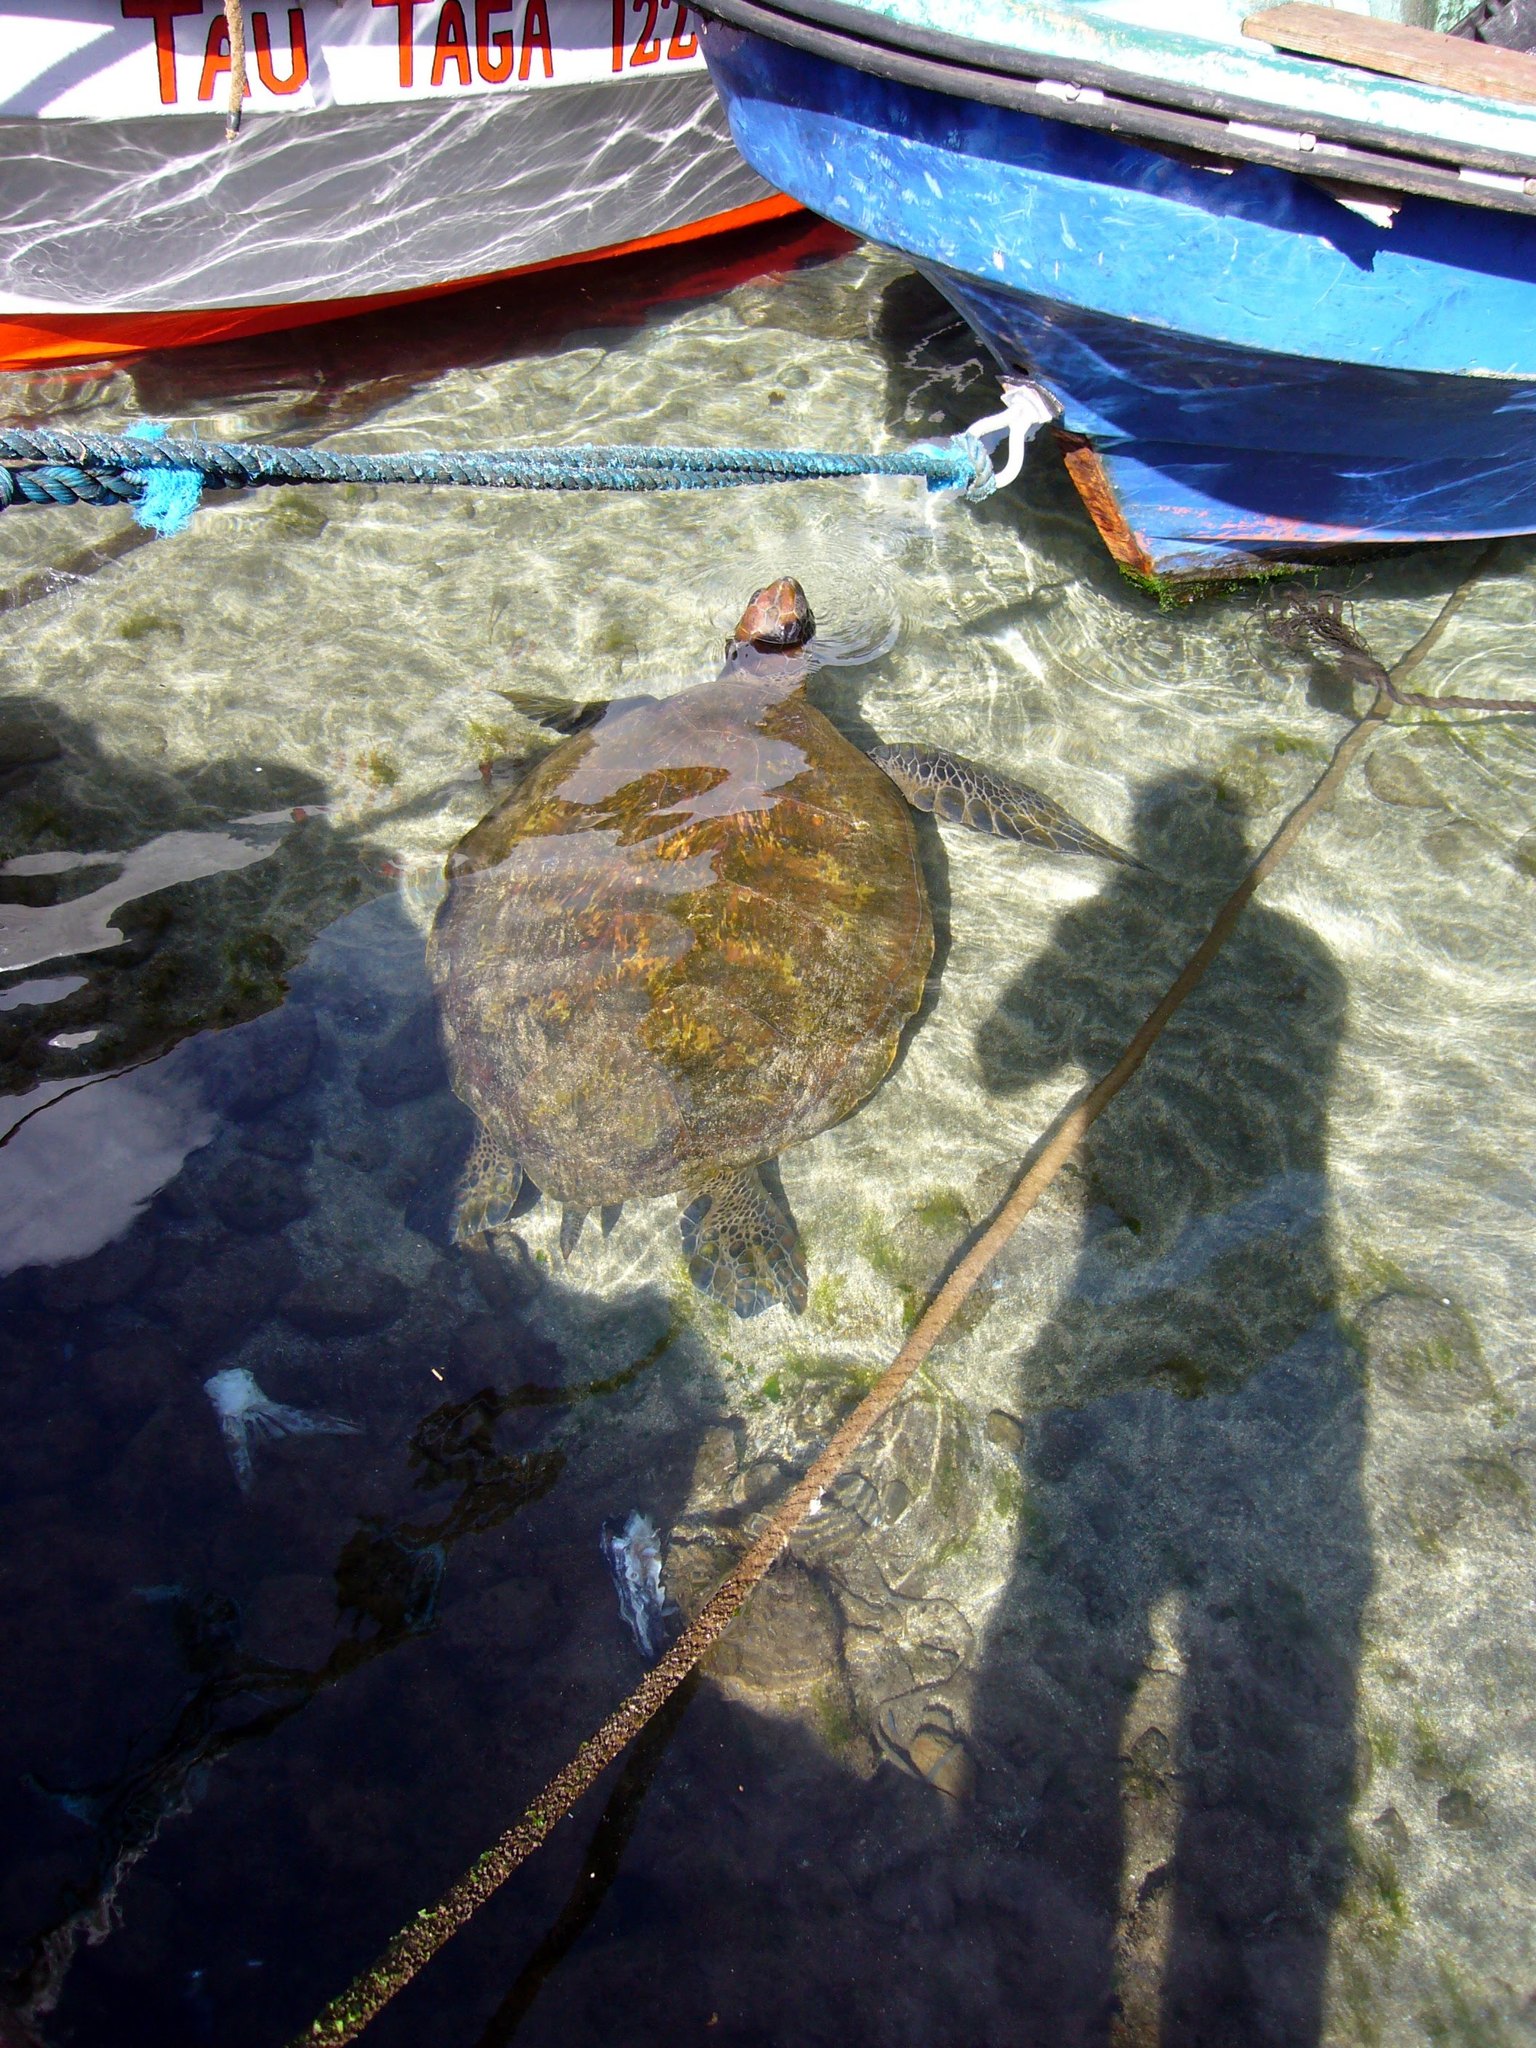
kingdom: Animalia
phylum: Chordata
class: Testudines
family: Cheloniidae
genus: Chelonia
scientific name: Chelonia mydas
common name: Green turtle
